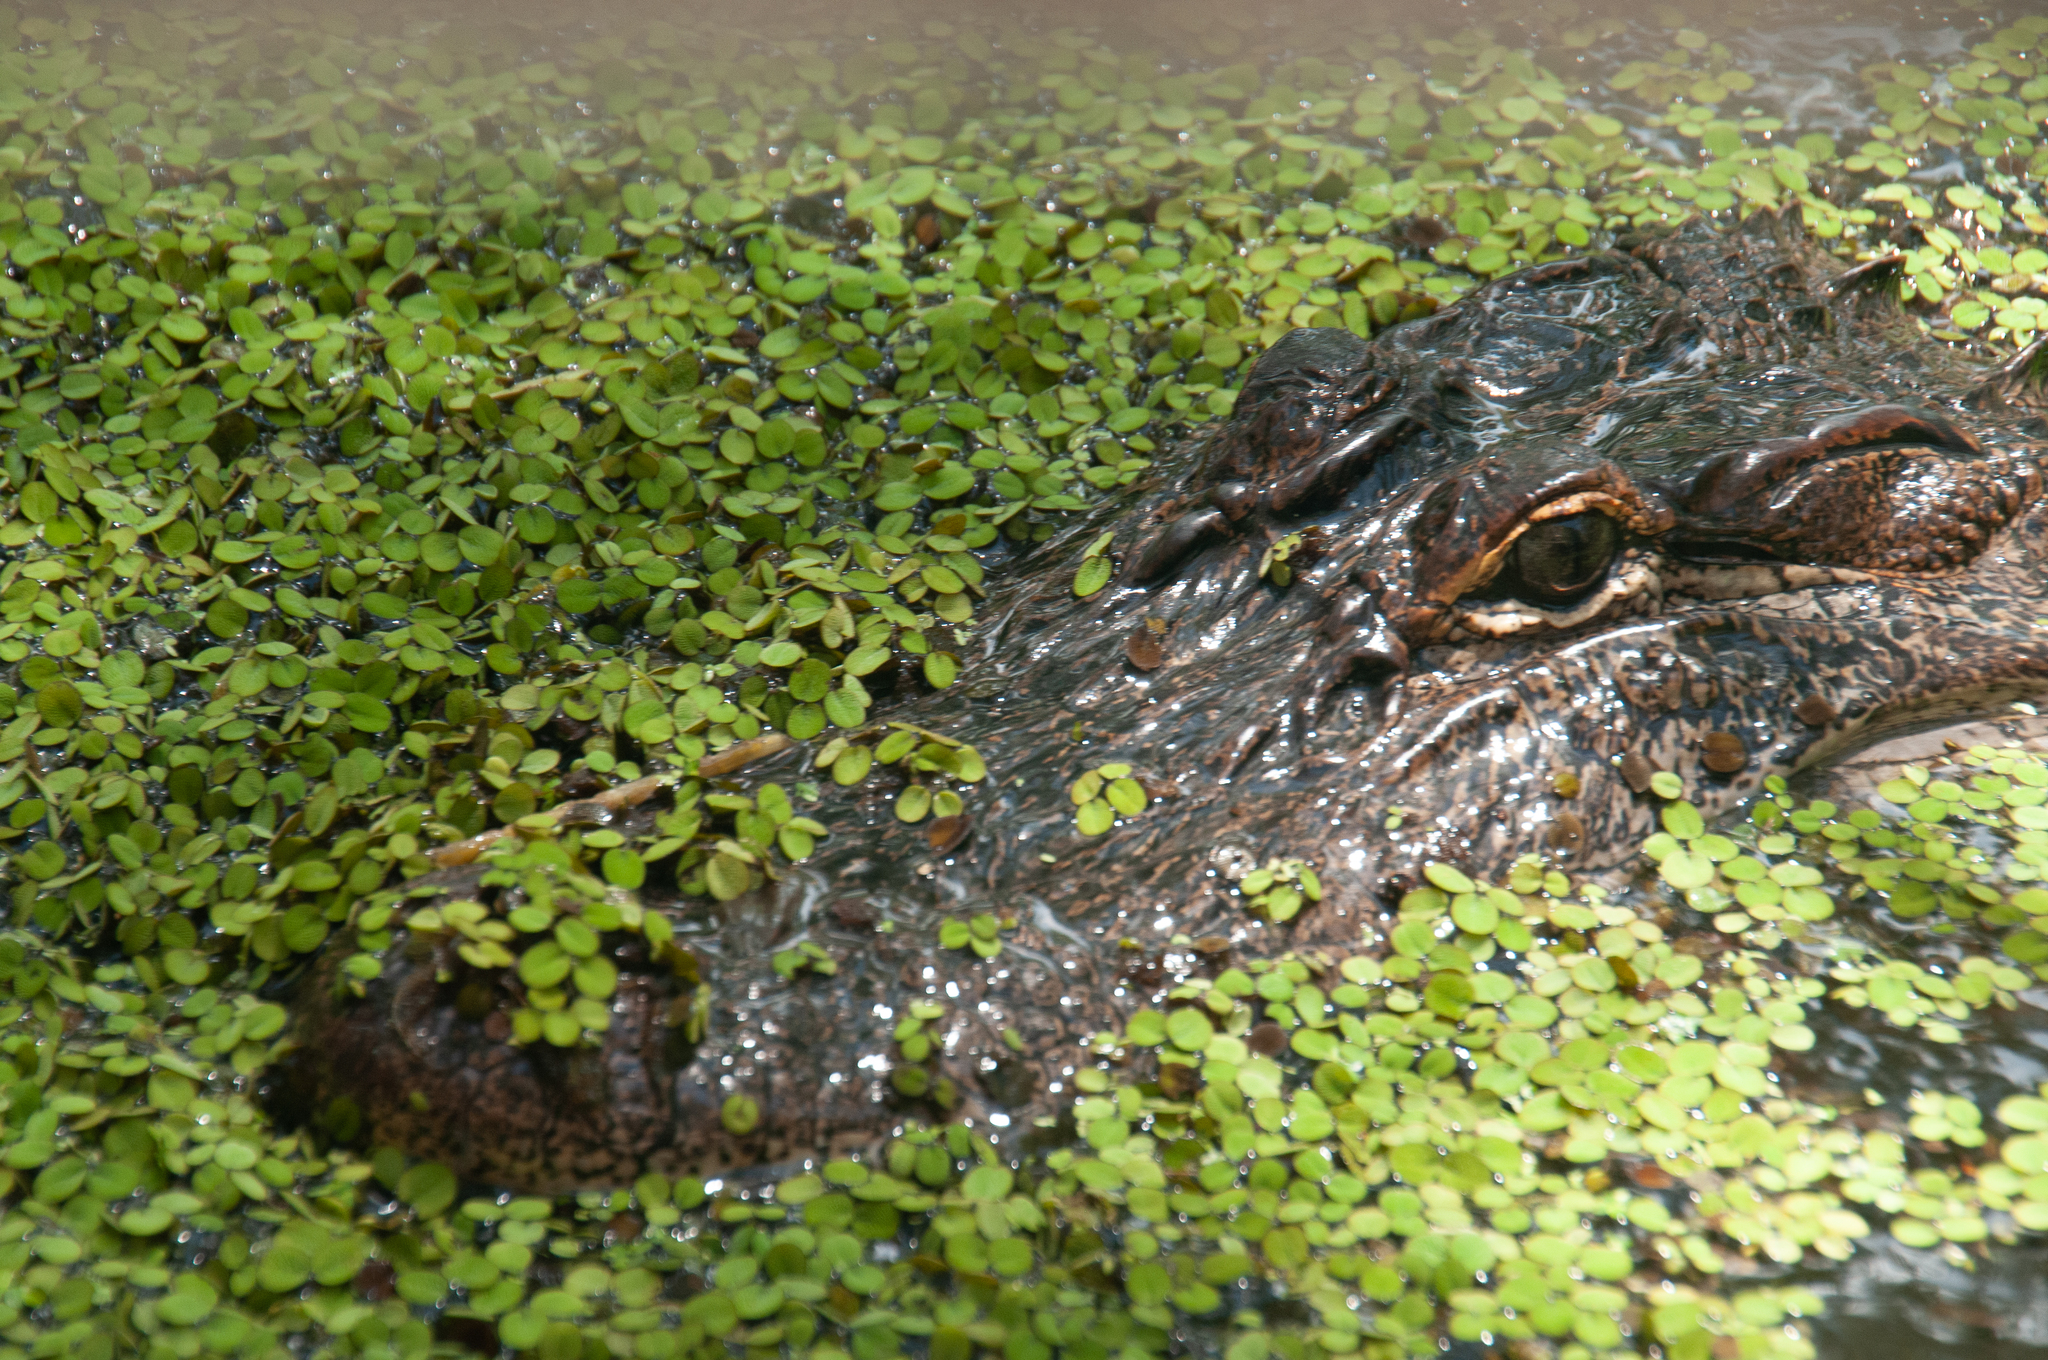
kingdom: Animalia
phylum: Chordata
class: Crocodylia
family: Alligatoridae
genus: Alligator
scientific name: Alligator mississippiensis
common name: American alligator
